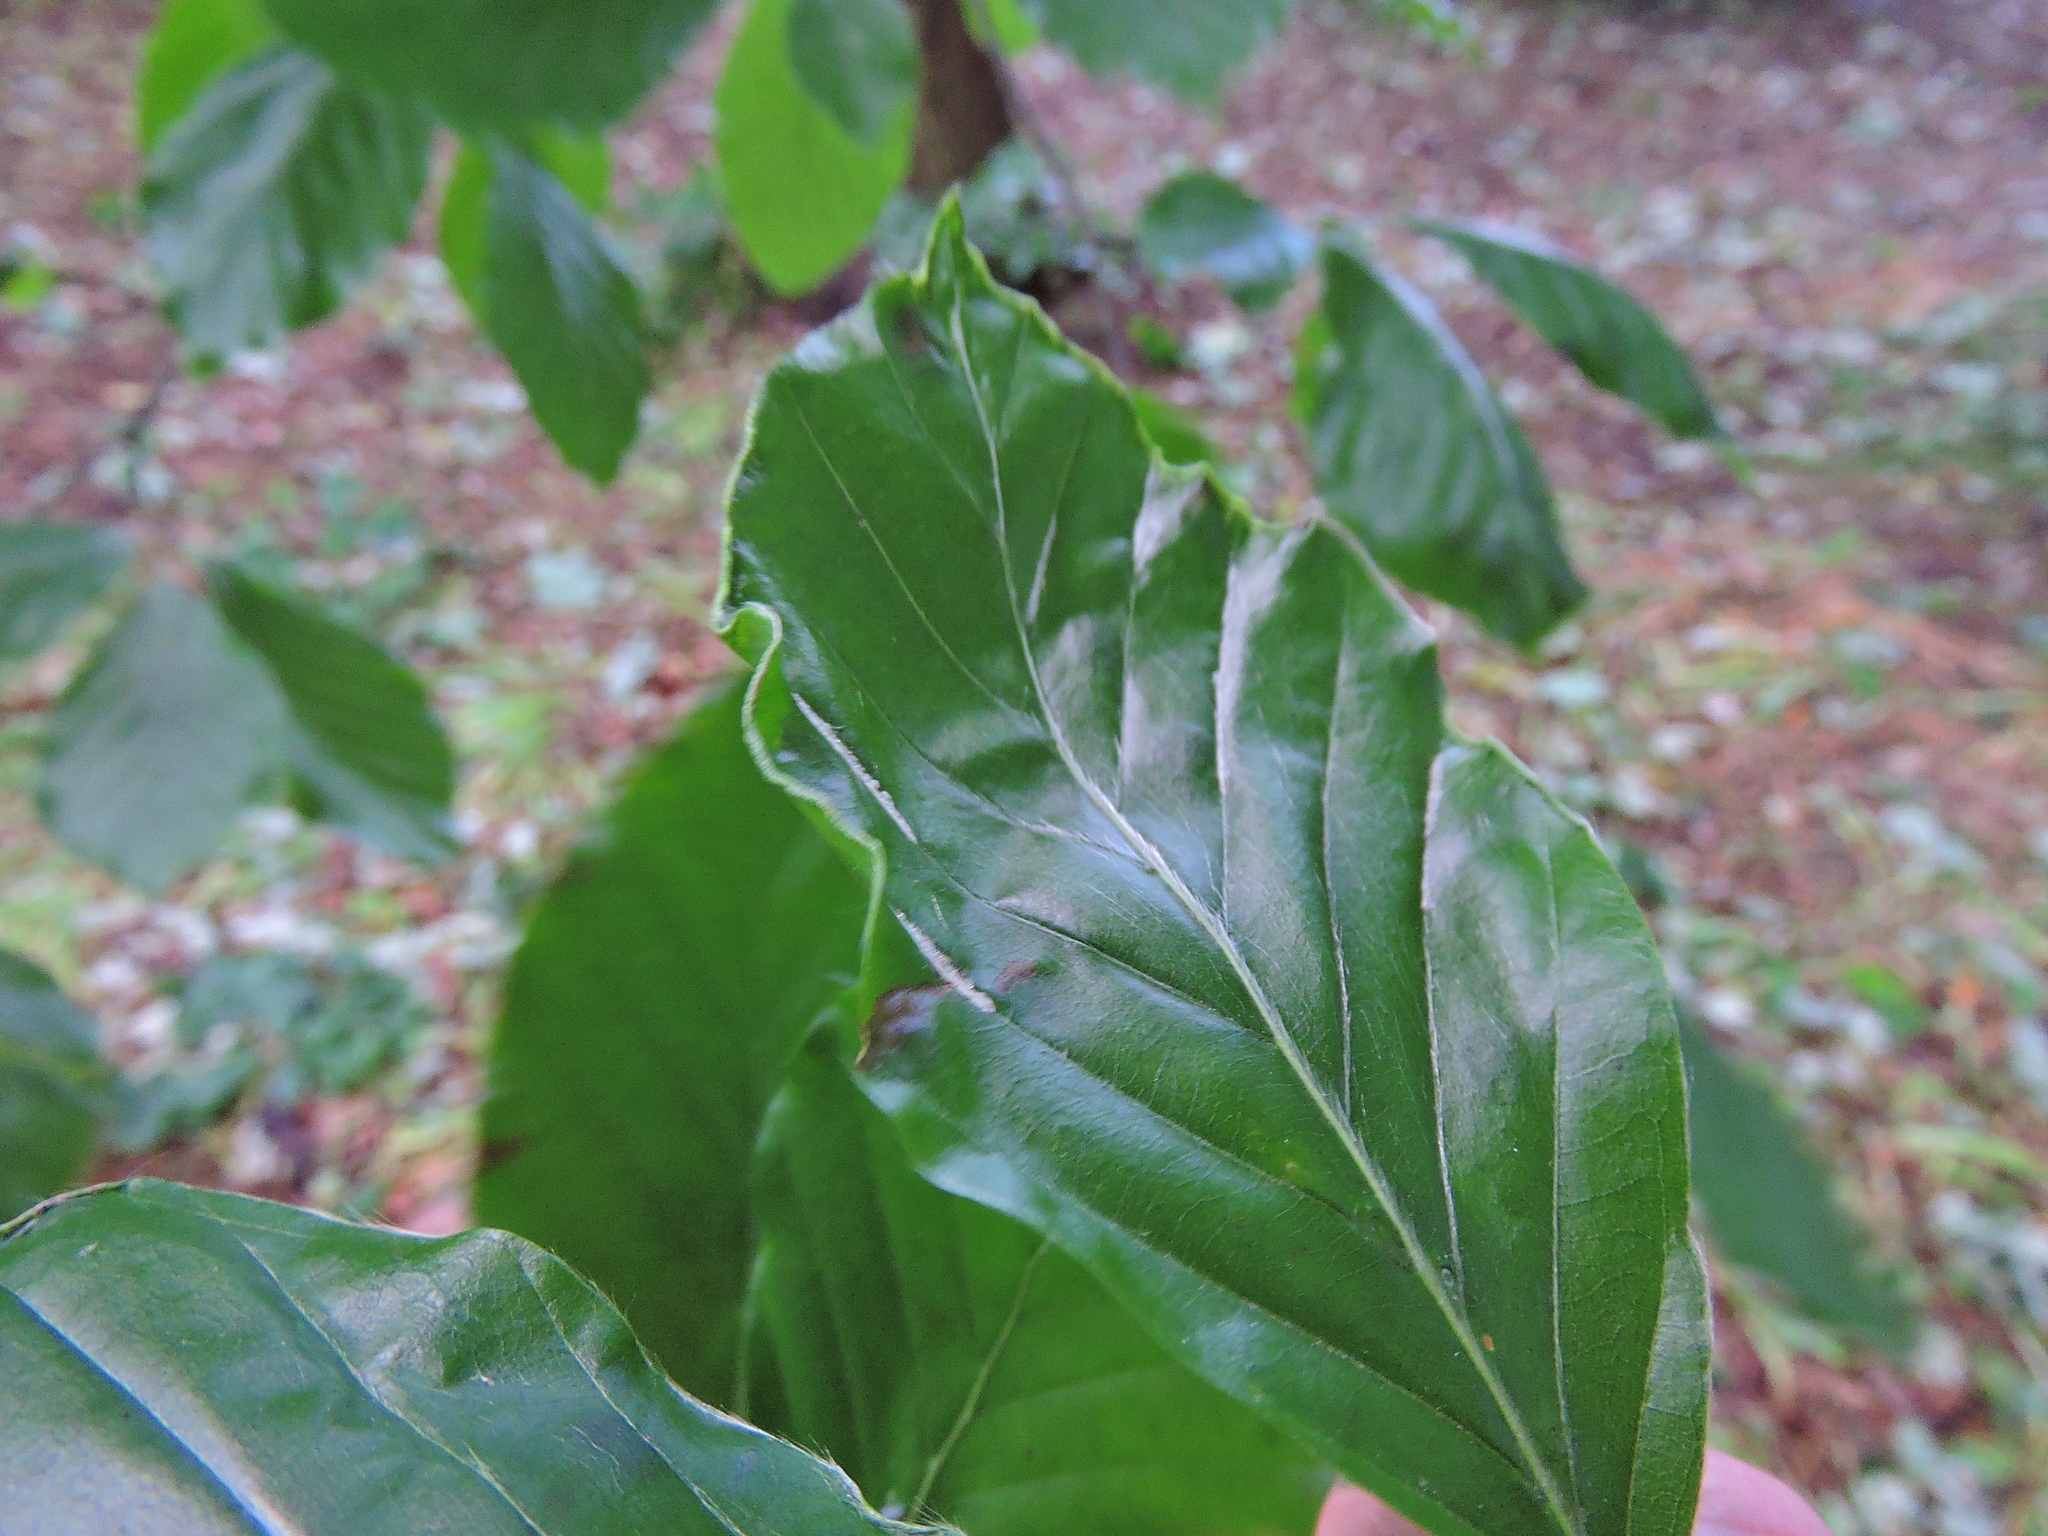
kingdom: Animalia
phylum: Arthropoda
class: Arachnida
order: Trombidiformes
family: Eriophyidae
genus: Aceria
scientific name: Aceria nervisequa
